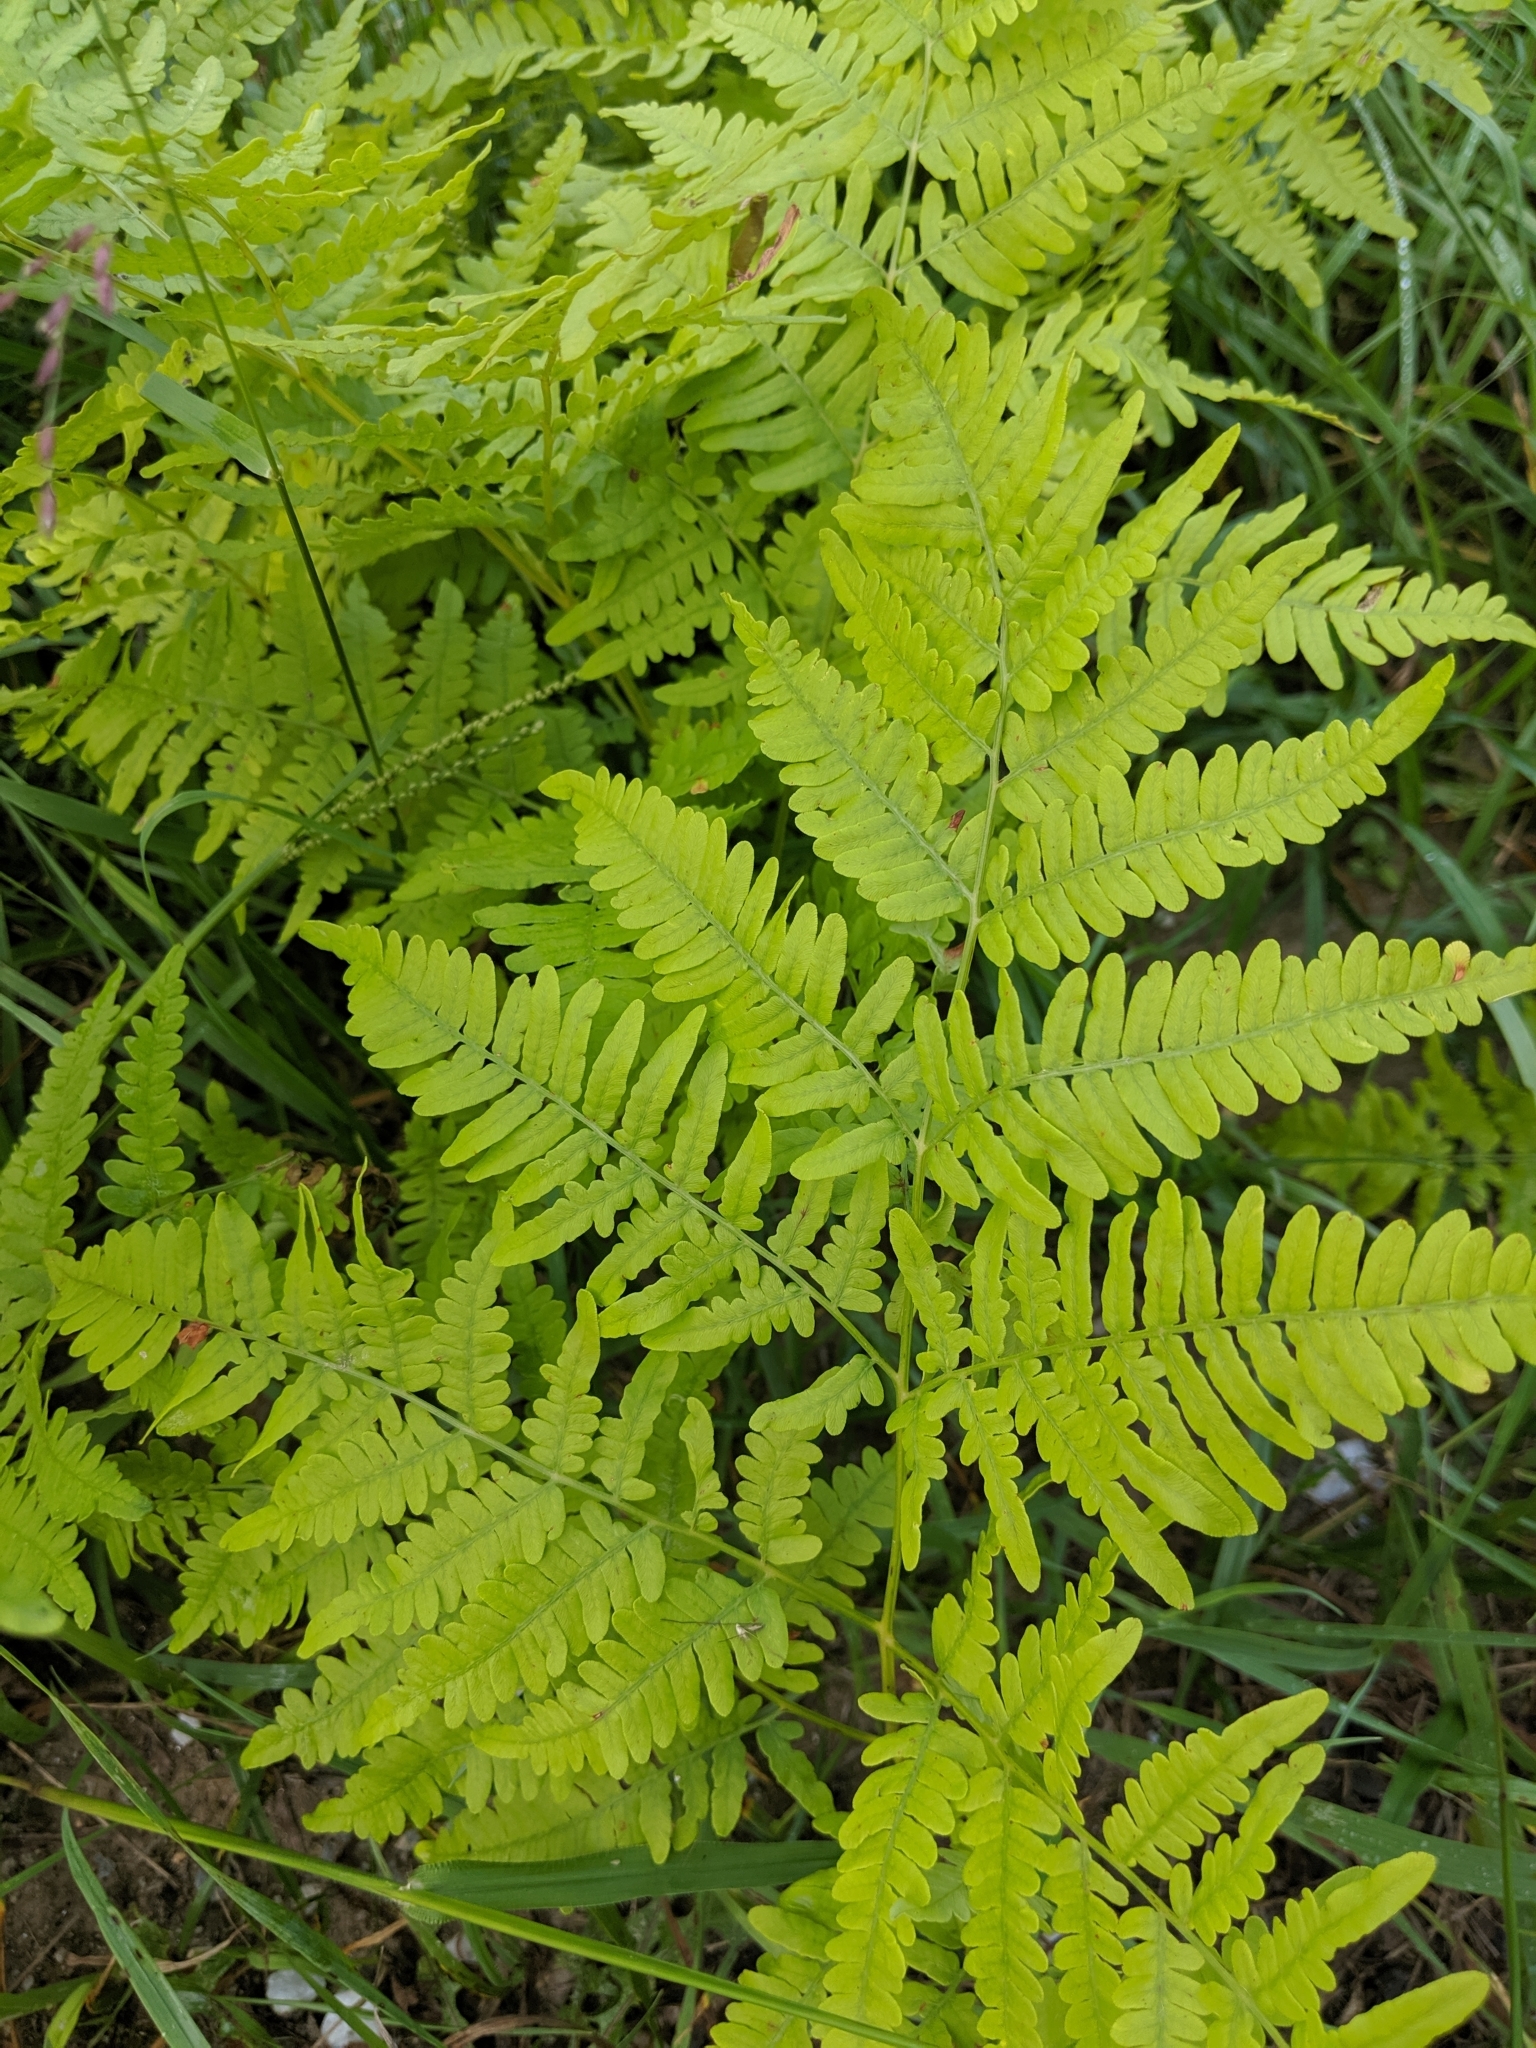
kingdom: Plantae
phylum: Tracheophyta
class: Polypodiopsida
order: Polypodiales
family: Dennstaedtiaceae
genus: Pteridium
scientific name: Pteridium aquilinum
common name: Bracken
